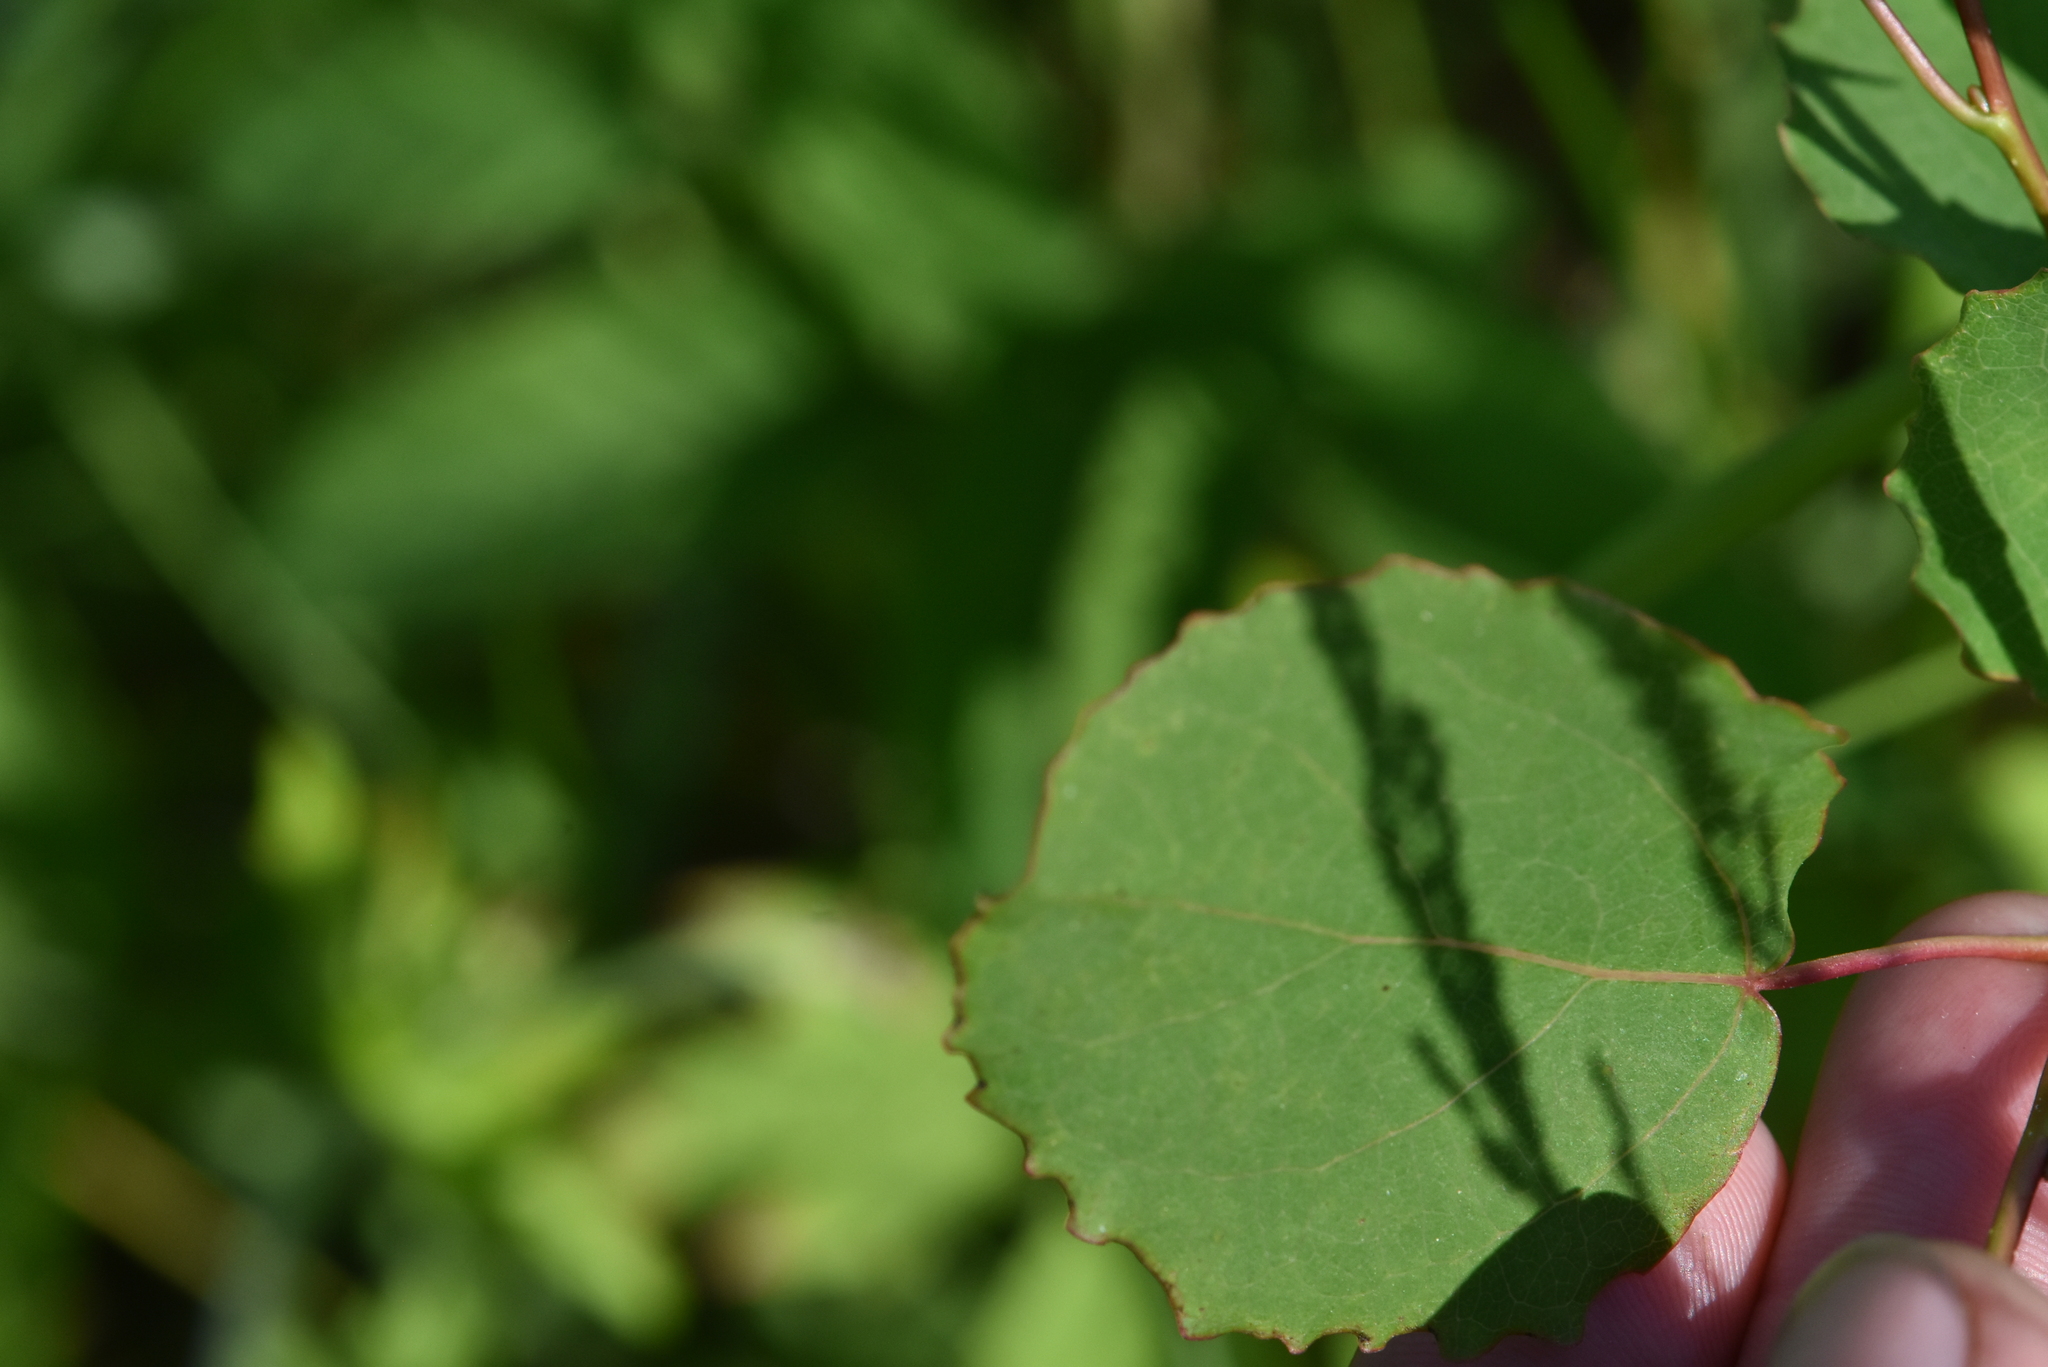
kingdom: Plantae
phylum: Tracheophyta
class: Magnoliopsida
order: Malpighiales
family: Salicaceae
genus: Populus
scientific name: Populus tremula
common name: European aspen
